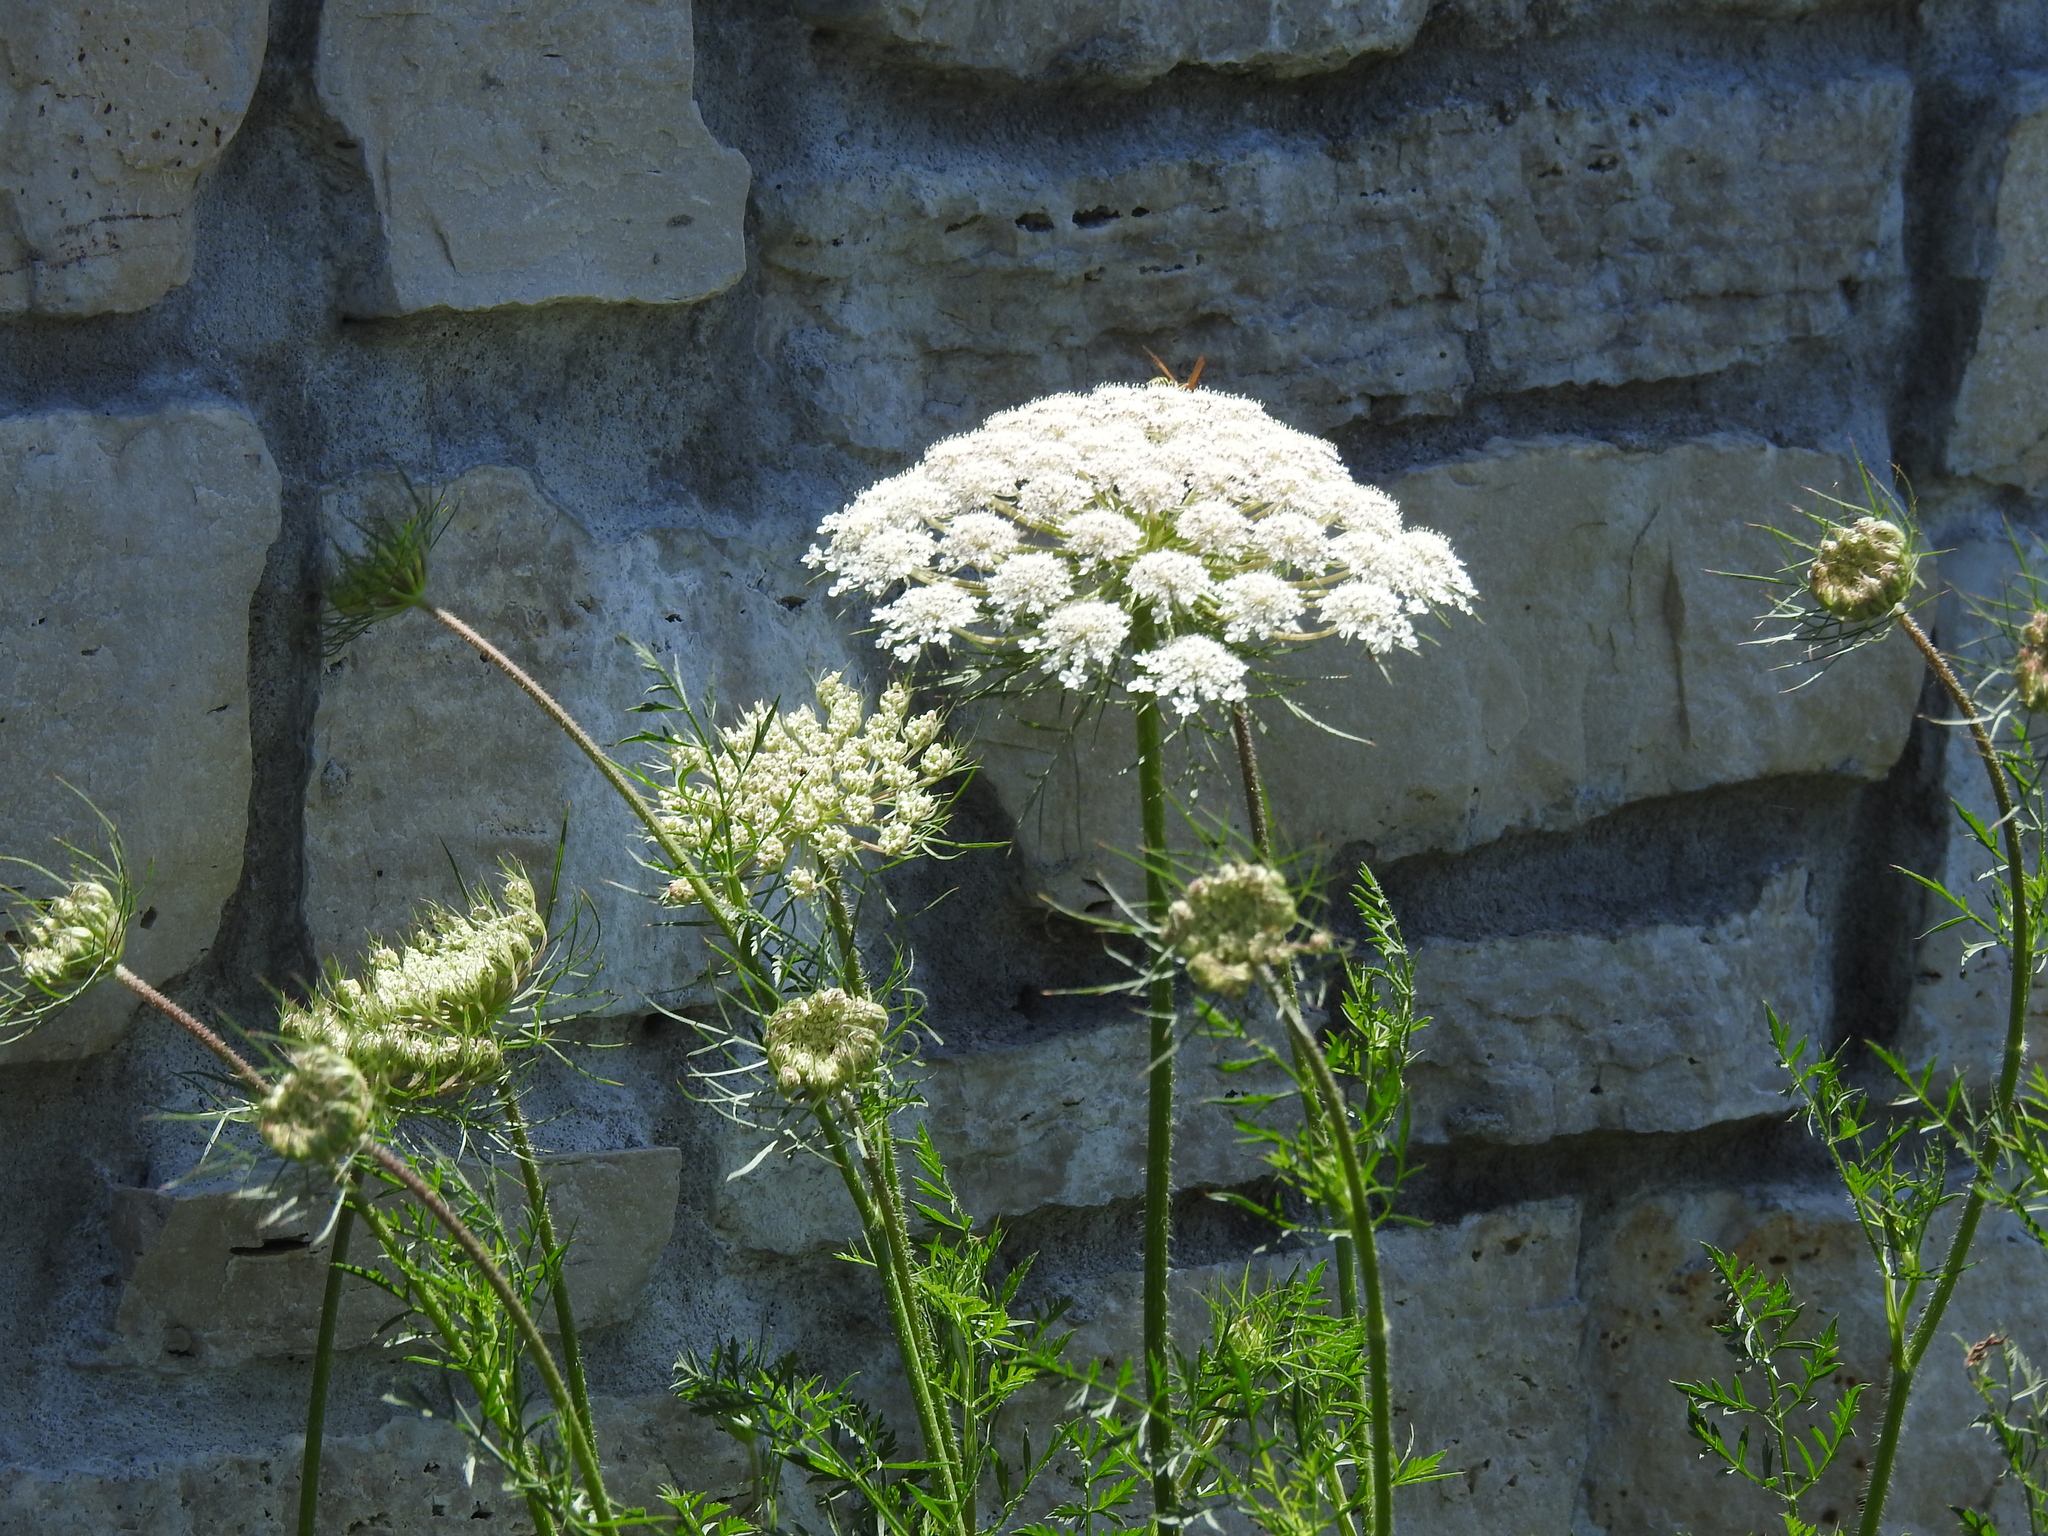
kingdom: Plantae
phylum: Tracheophyta
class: Magnoliopsida
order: Apiales
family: Apiaceae
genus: Daucus
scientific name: Daucus carota
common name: Wild carrot
